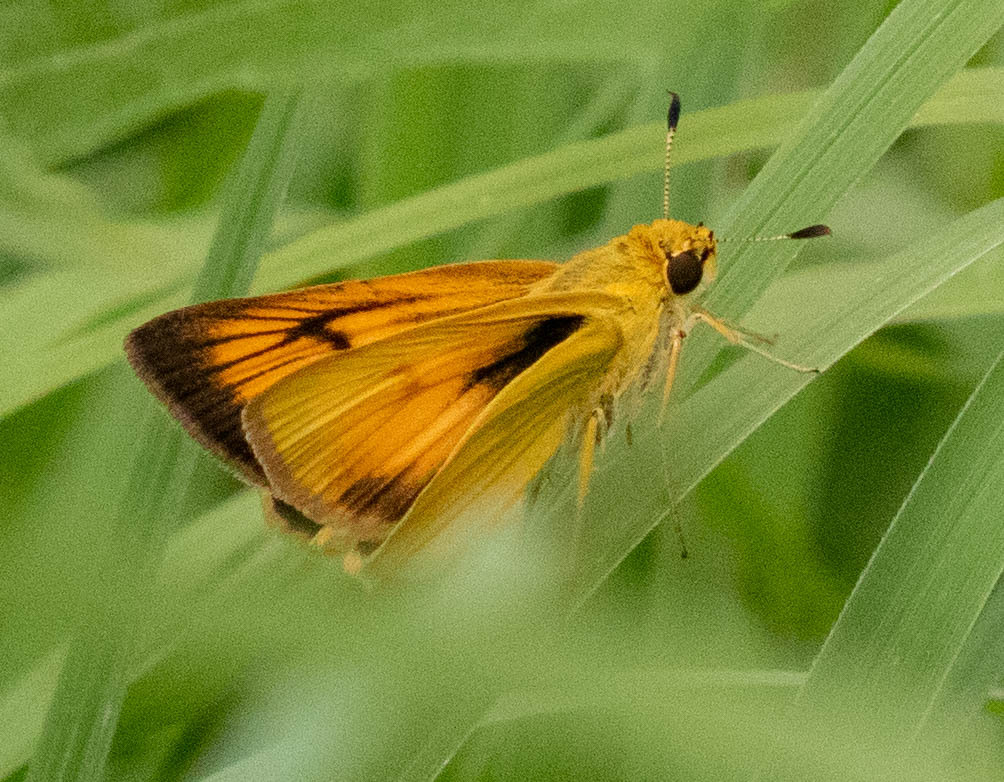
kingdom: Animalia
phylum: Arthropoda
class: Insecta
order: Lepidoptera
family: Hesperiidae
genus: Atrytone
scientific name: Atrytone delaware
